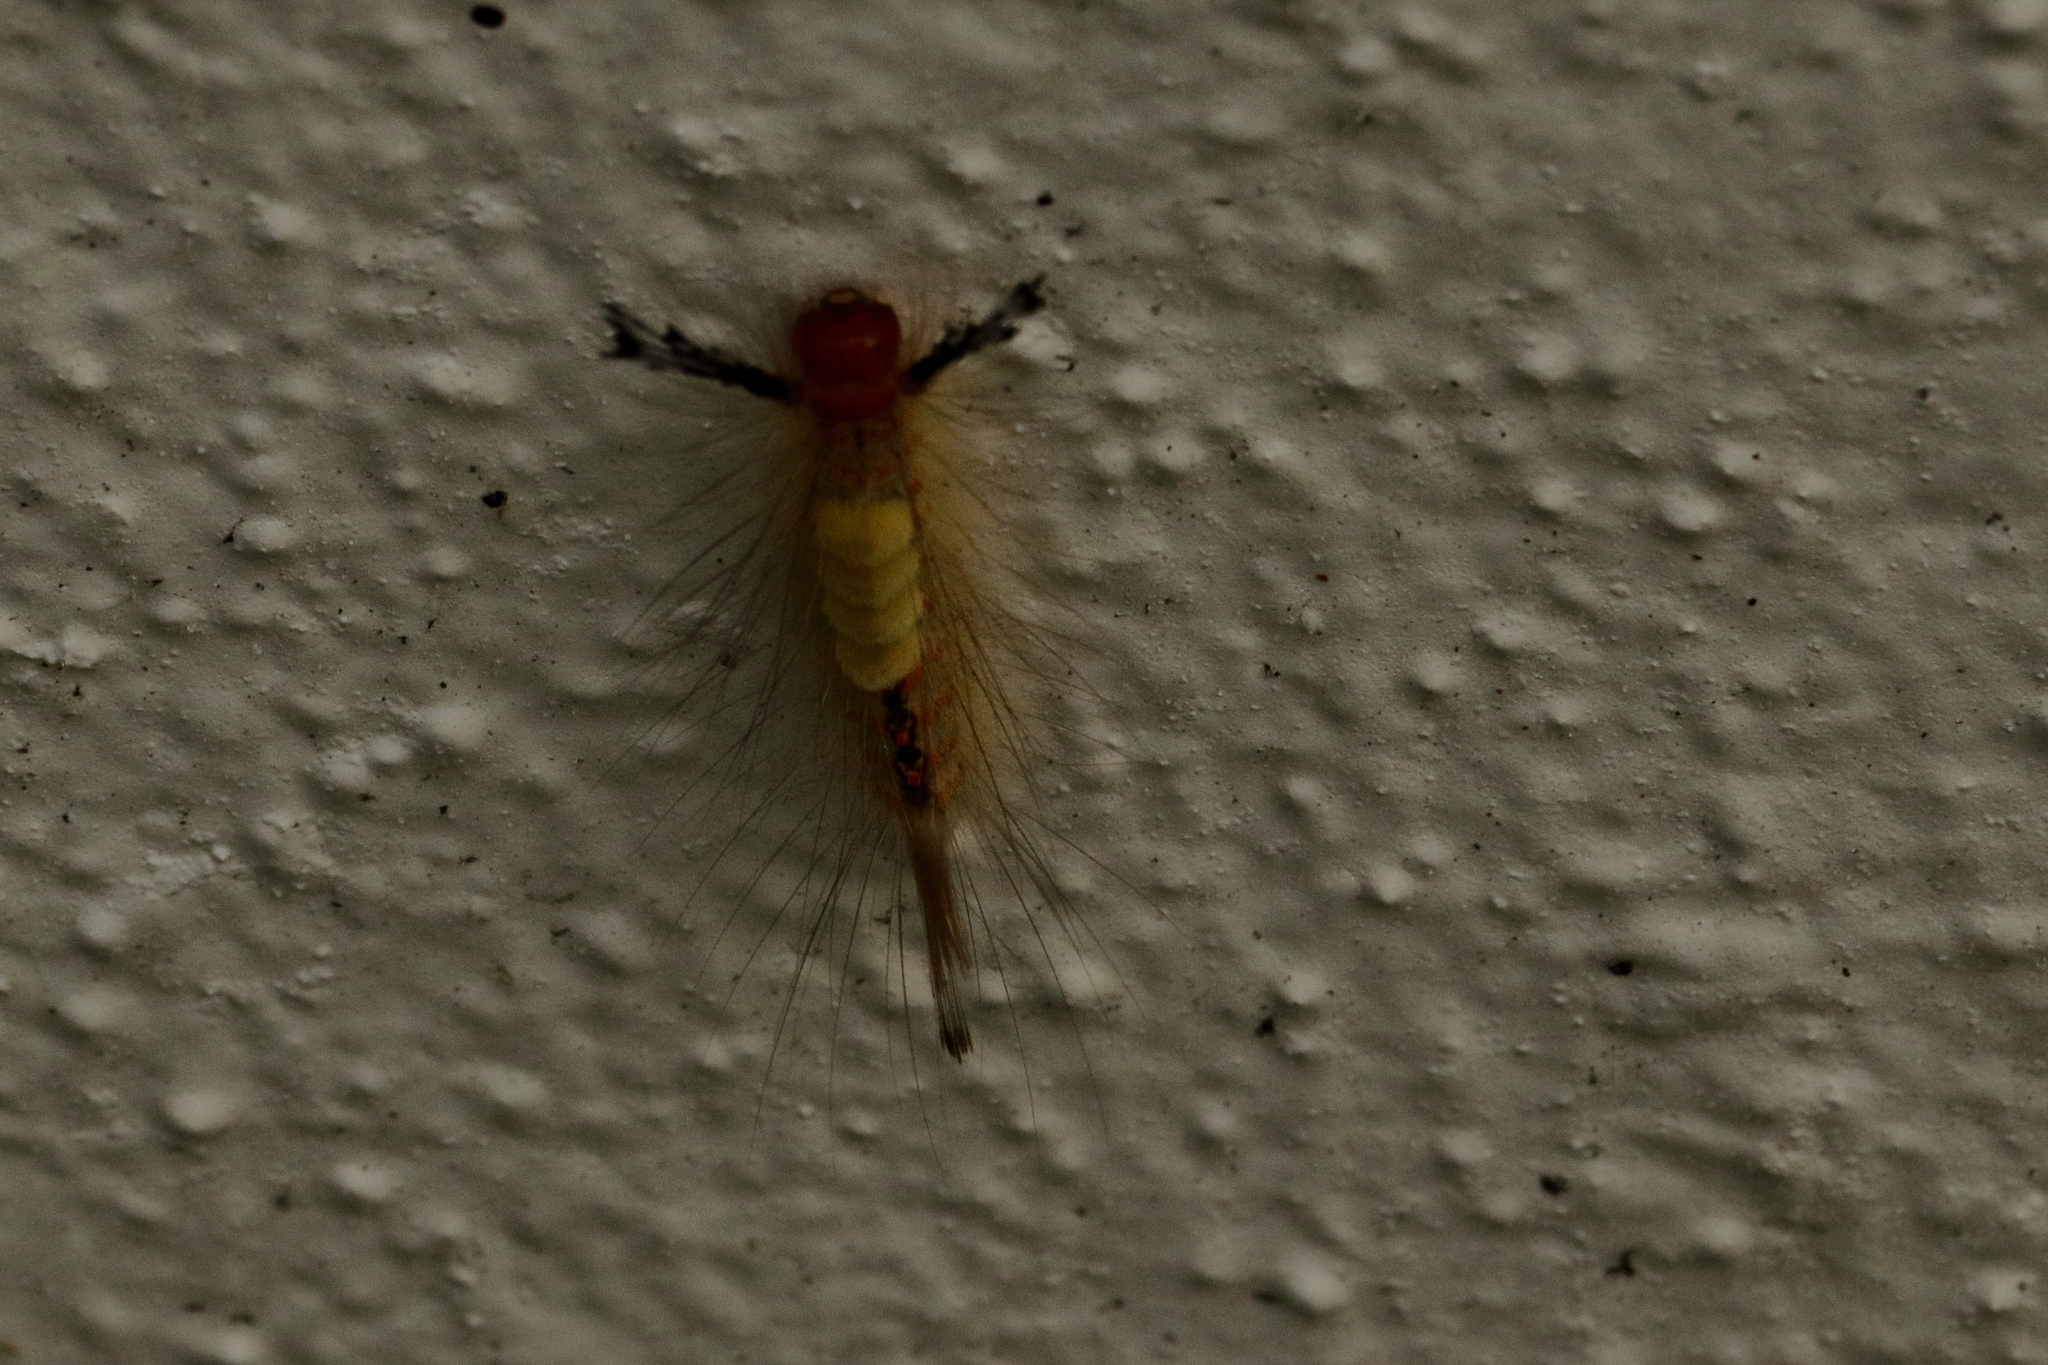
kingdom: Animalia
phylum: Arthropoda
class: Insecta
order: Lepidoptera
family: Erebidae
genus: Orgyia
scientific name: Orgyia detrita
